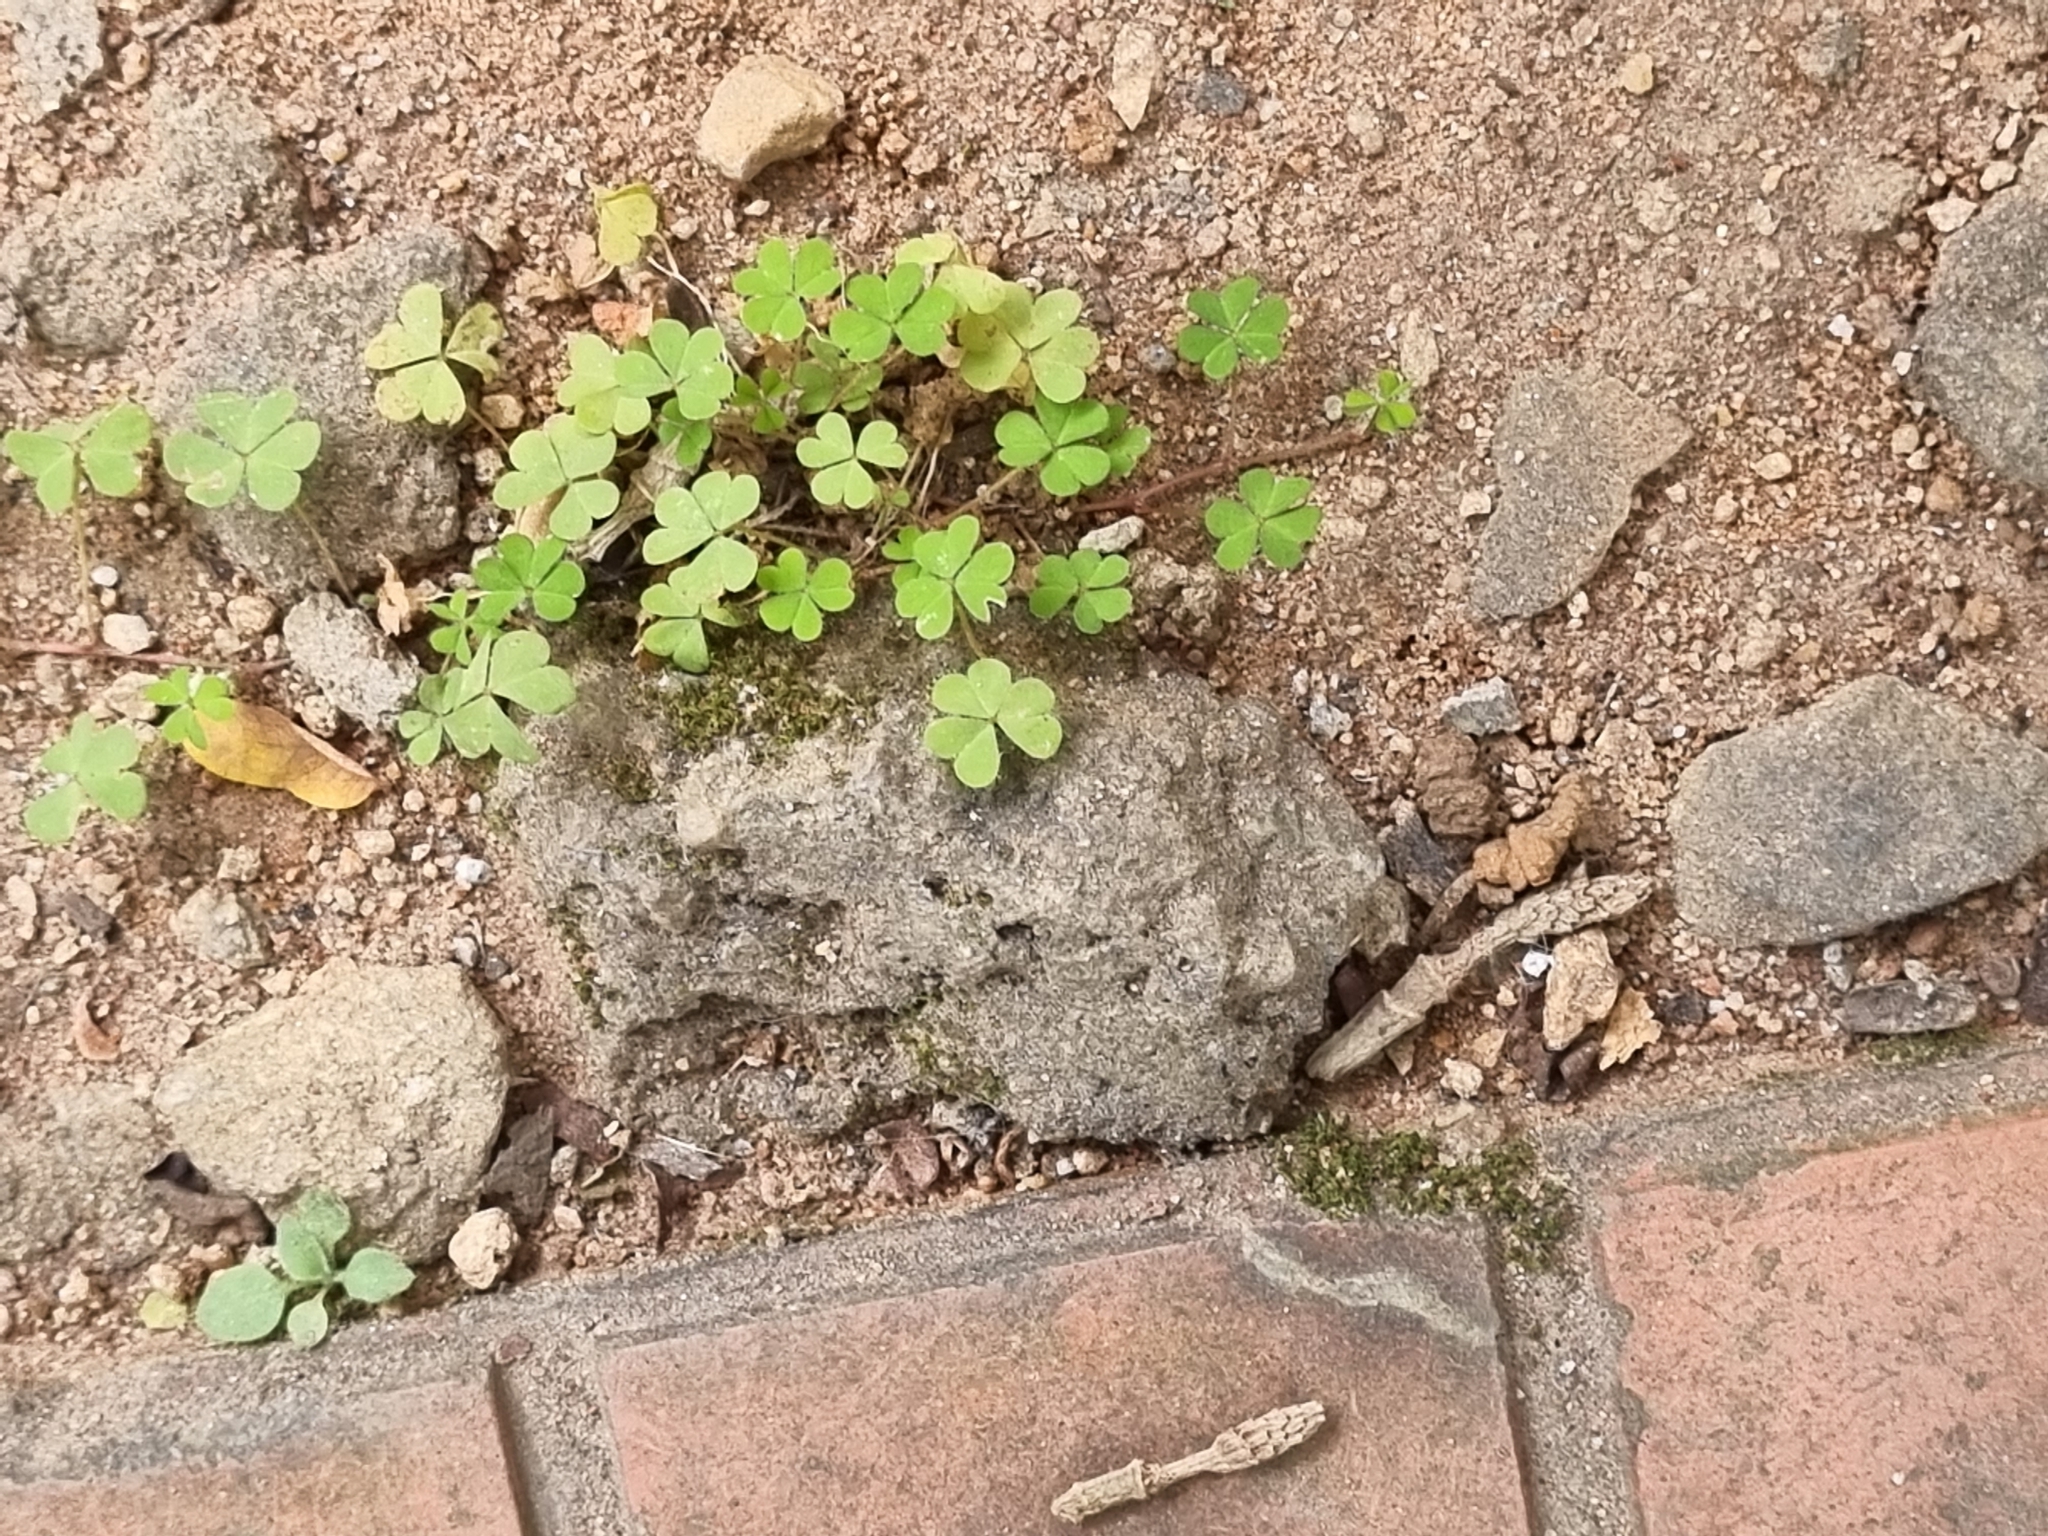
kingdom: Plantae
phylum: Tracheophyta
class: Magnoliopsida
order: Oxalidales
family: Oxalidaceae
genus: Oxalis
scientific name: Oxalis corniculata
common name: Procumbent yellow-sorrel
